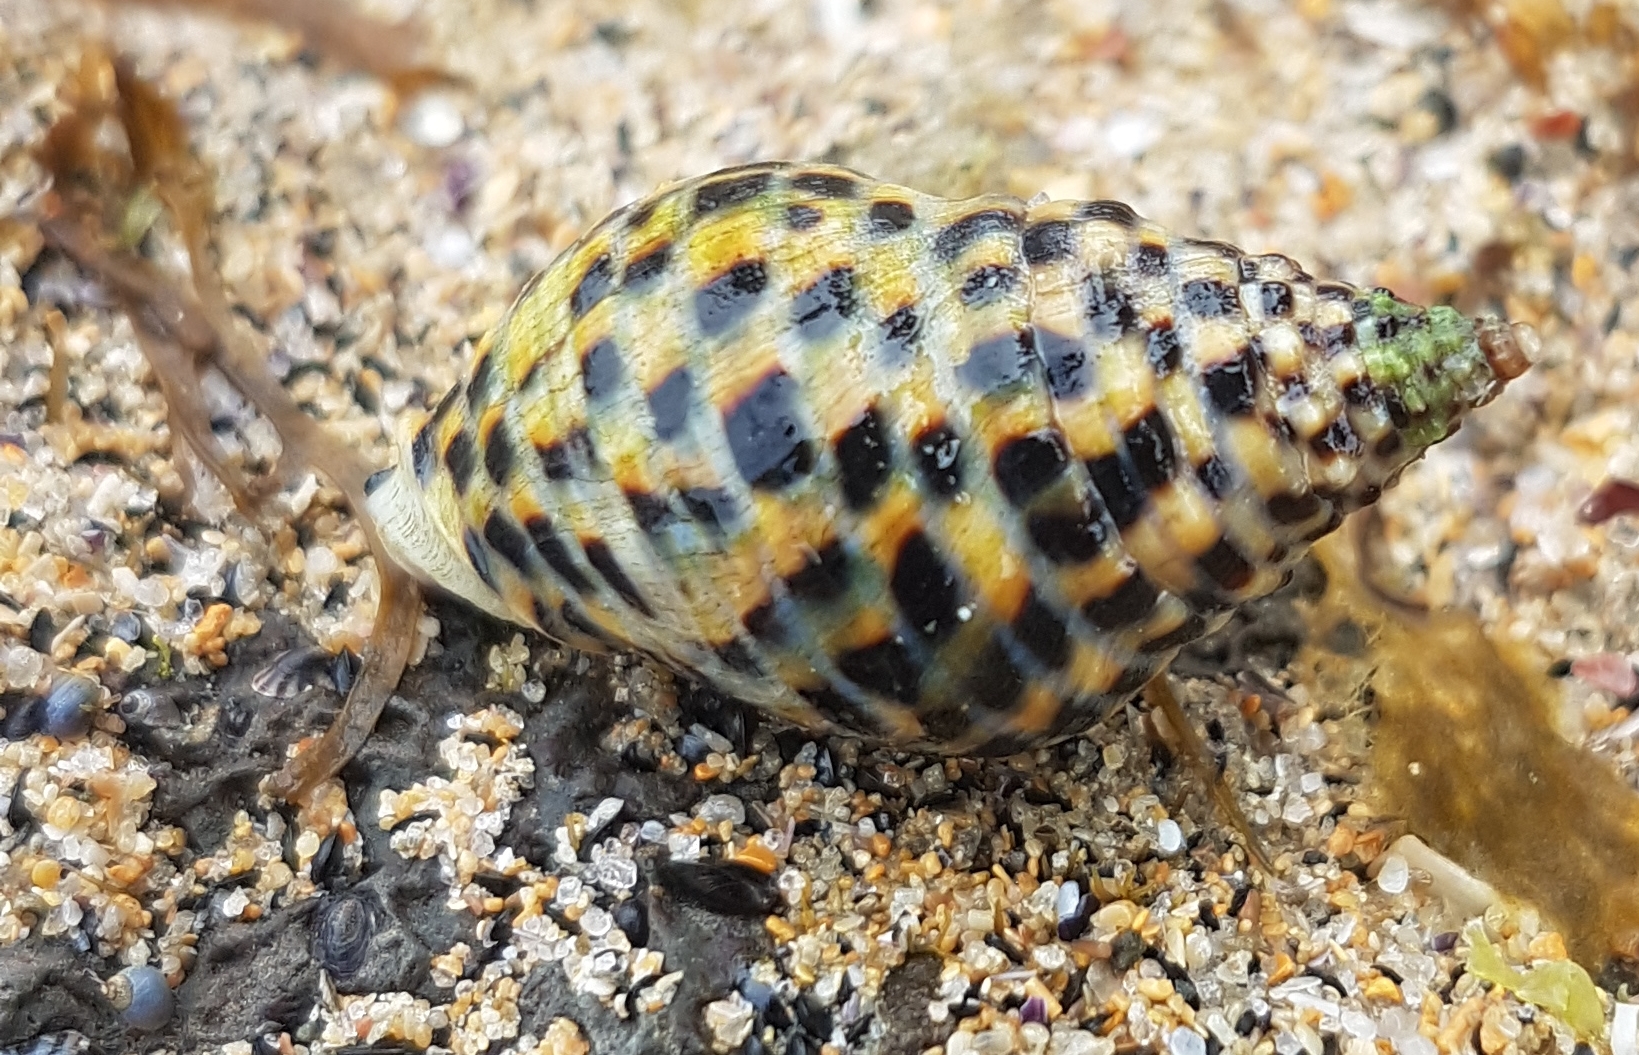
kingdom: Animalia
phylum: Mollusca
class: Gastropoda
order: Neogastropoda
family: Cominellidae
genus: Cominella
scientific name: Cominella lineolata
